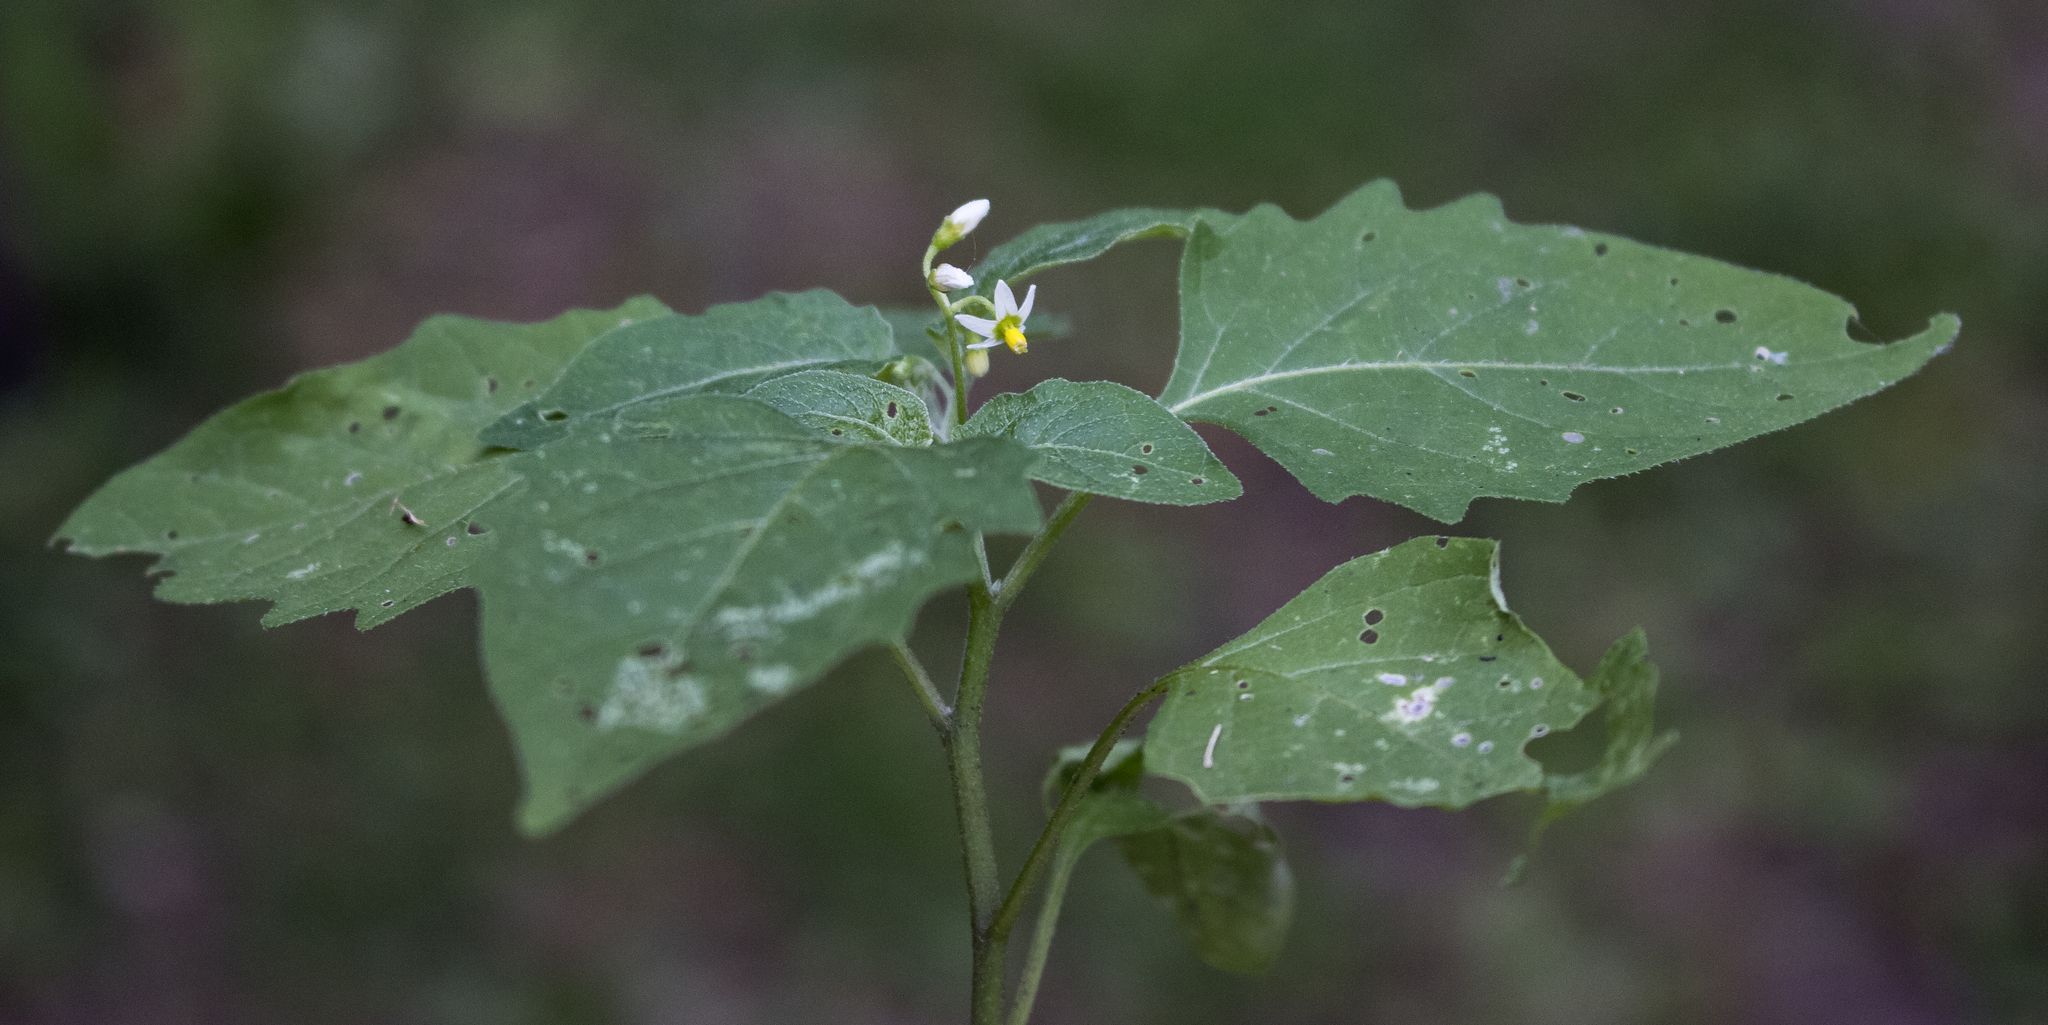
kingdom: Plantae
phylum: Tracheophyta
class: Magnoliopsida
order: Solanales
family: Solanaceae
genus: Solanum
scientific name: Solanum emulans
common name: Eastern black nightshade
